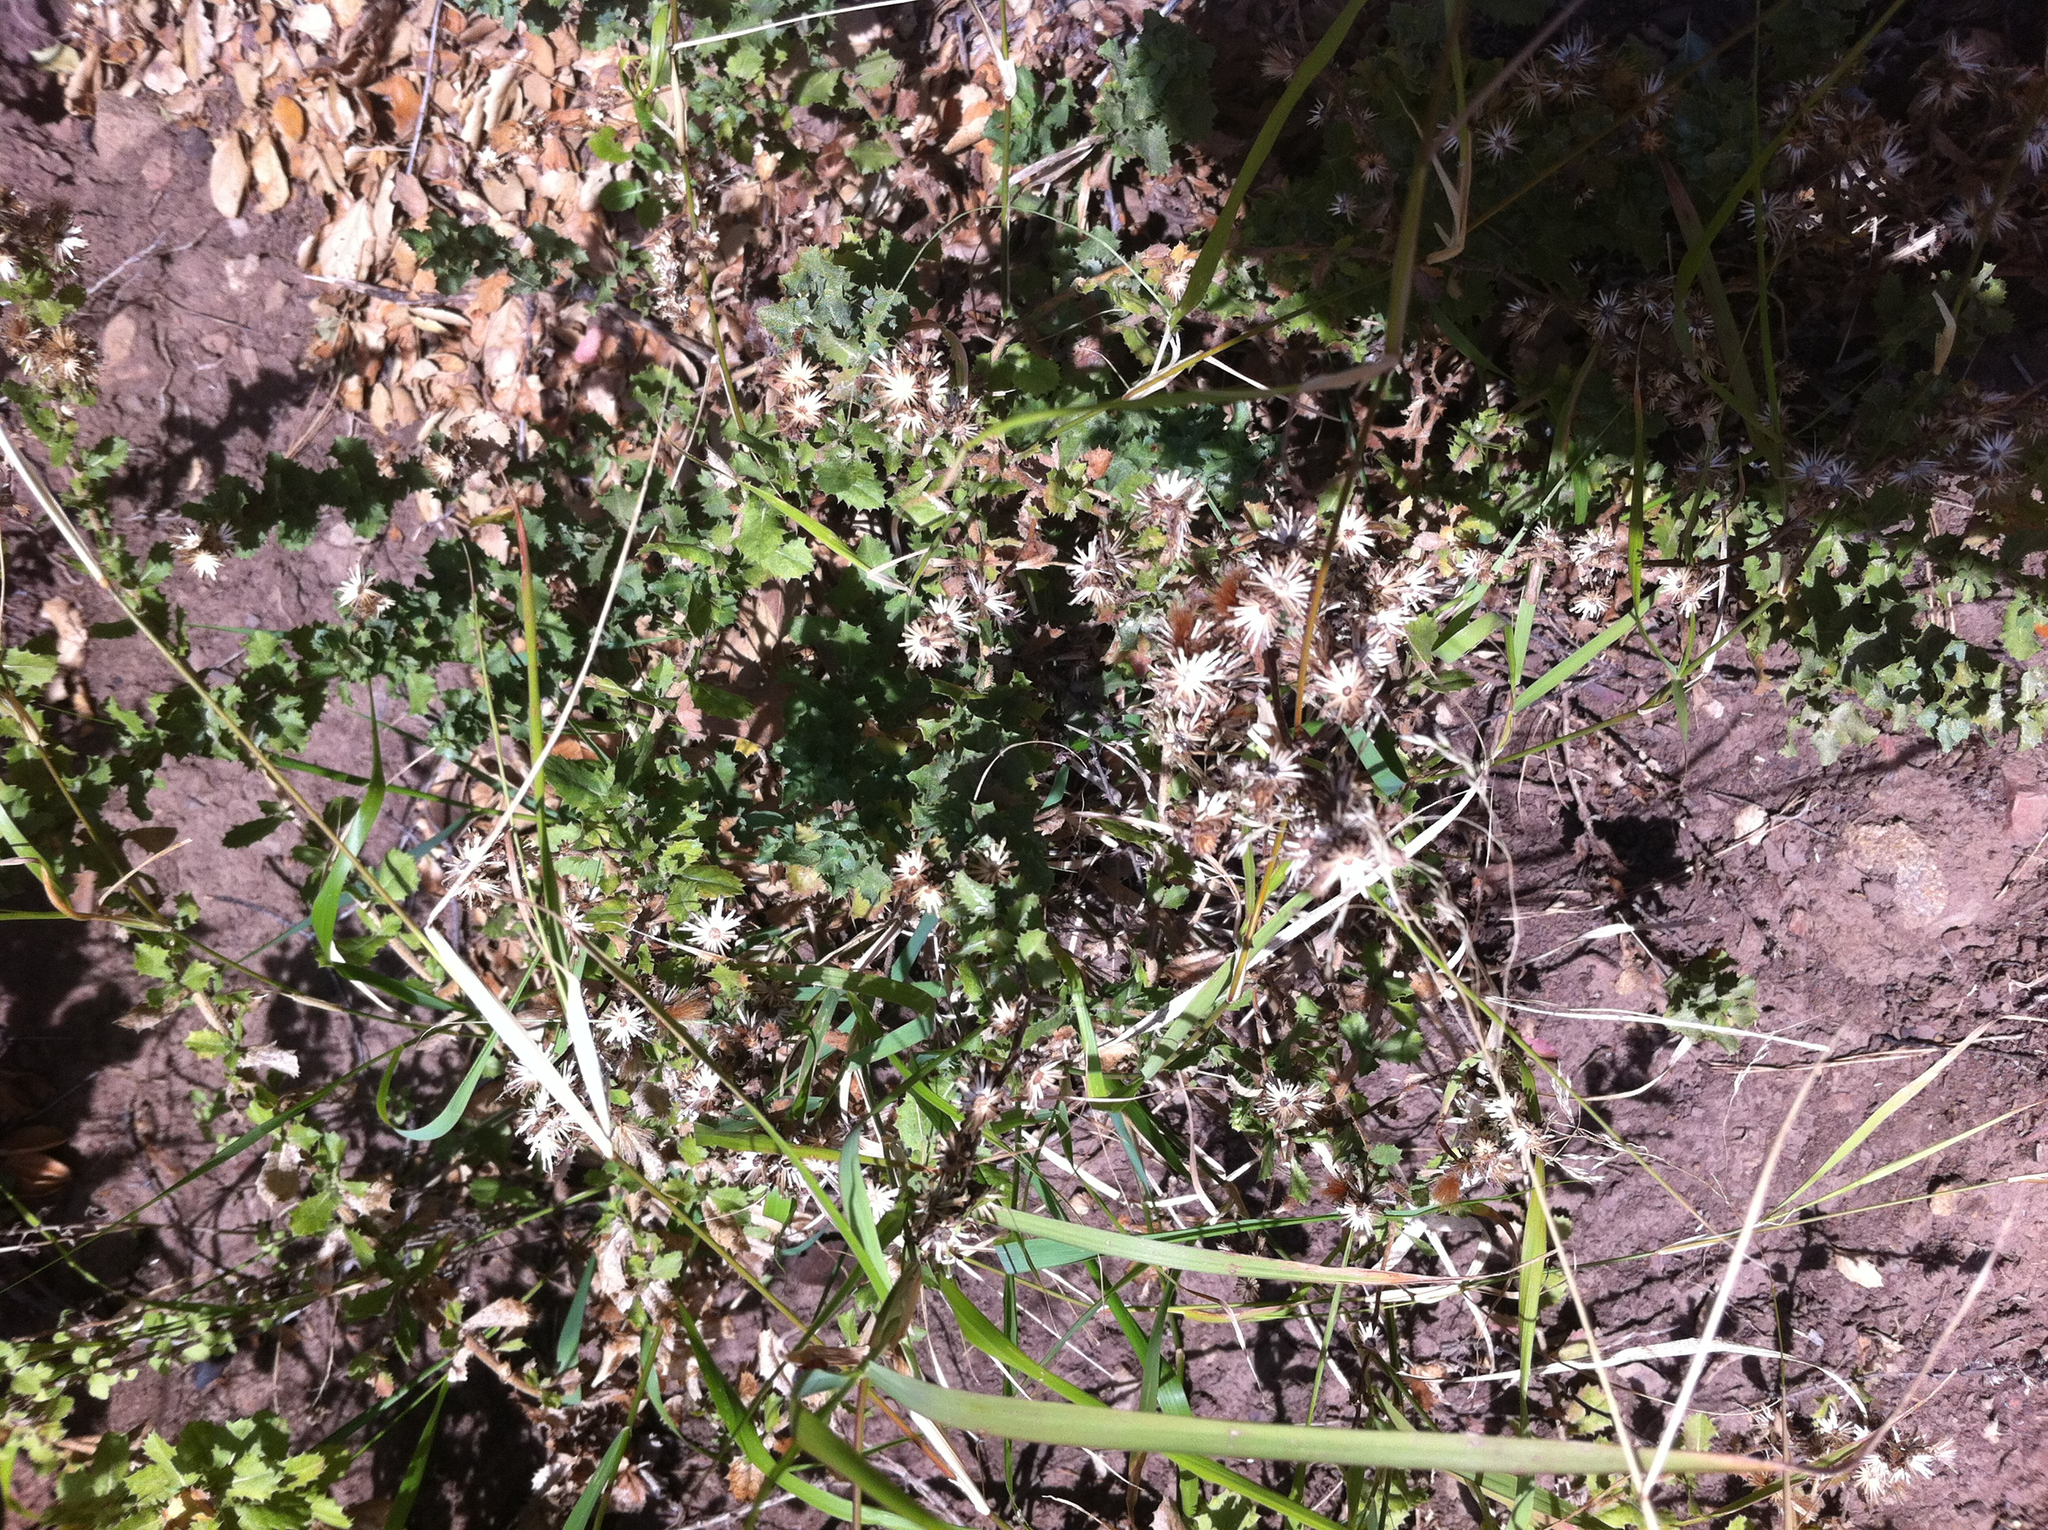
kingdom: Plantae
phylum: Tracheophyta
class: Magnoliopsida
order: Asterales
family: Asteraceae
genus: Isocoma
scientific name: Isocoma menziesii
